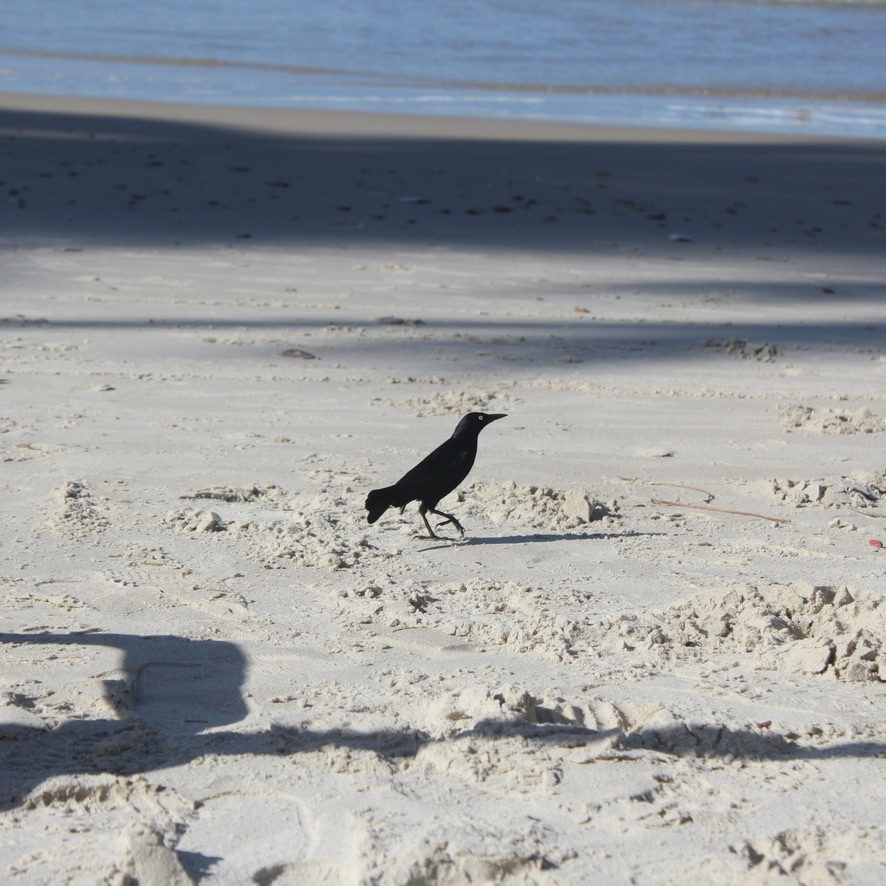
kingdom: Animalia
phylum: Chordata
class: Aves
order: Passeriformes
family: Icteridae
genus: Quiscalus
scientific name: Quiscalus lugubris
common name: Carib grackle
